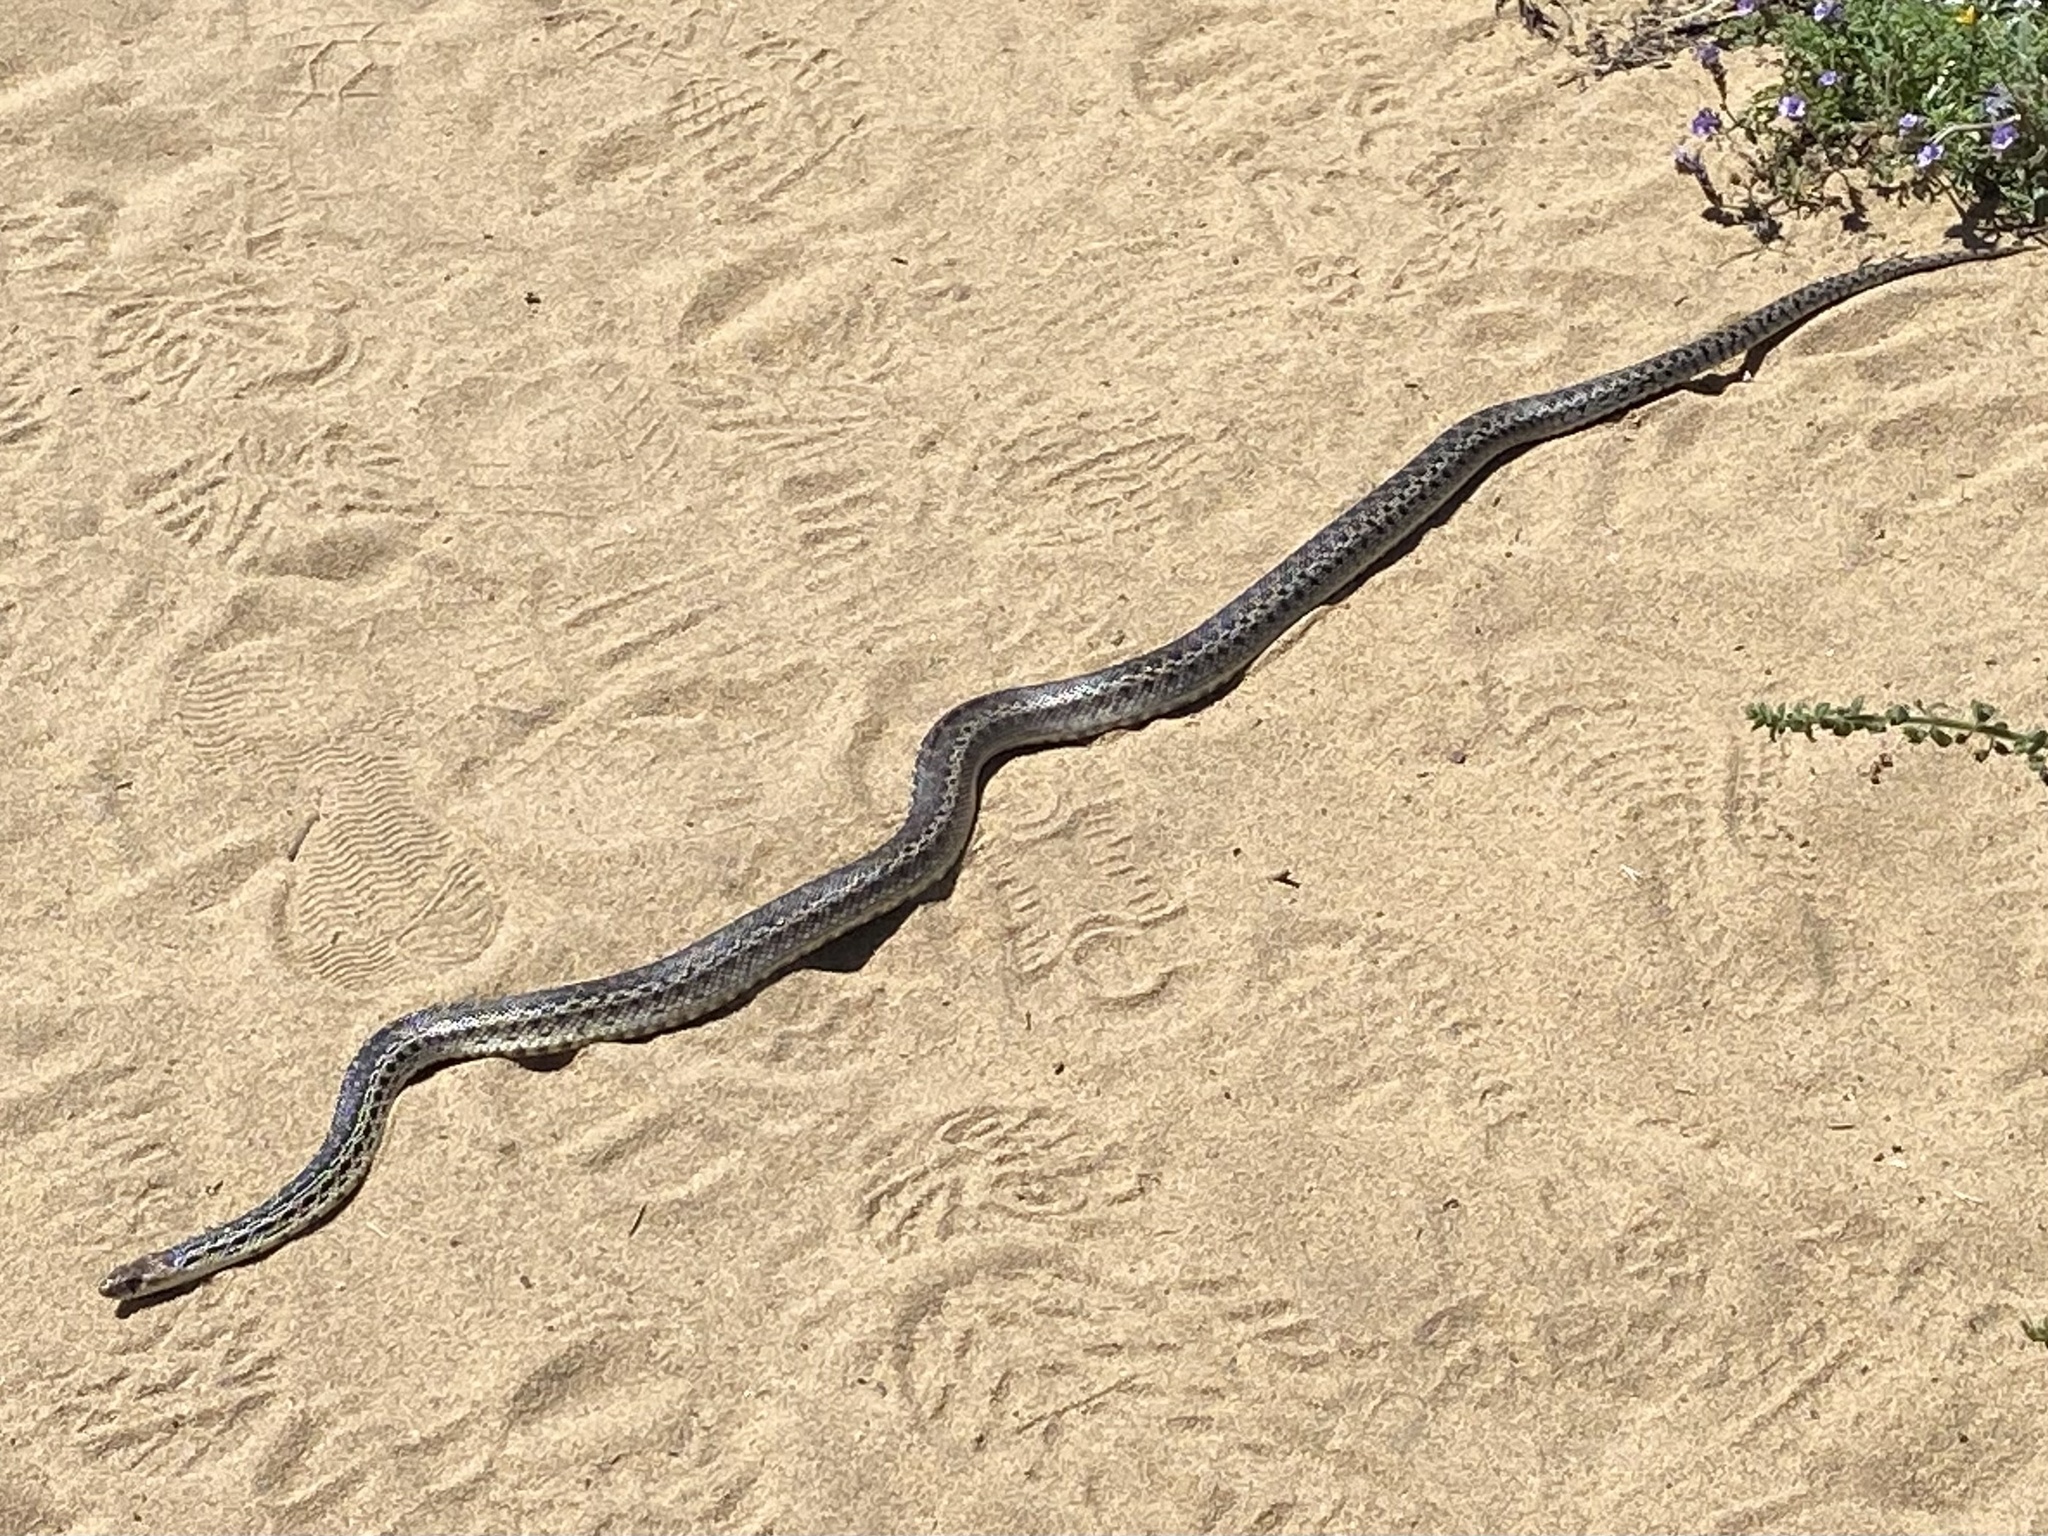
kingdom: Animalia
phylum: Chordata
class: Squamata
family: Colubridae
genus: Pituophis
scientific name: Pituophis catenifer
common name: Gopher snake
